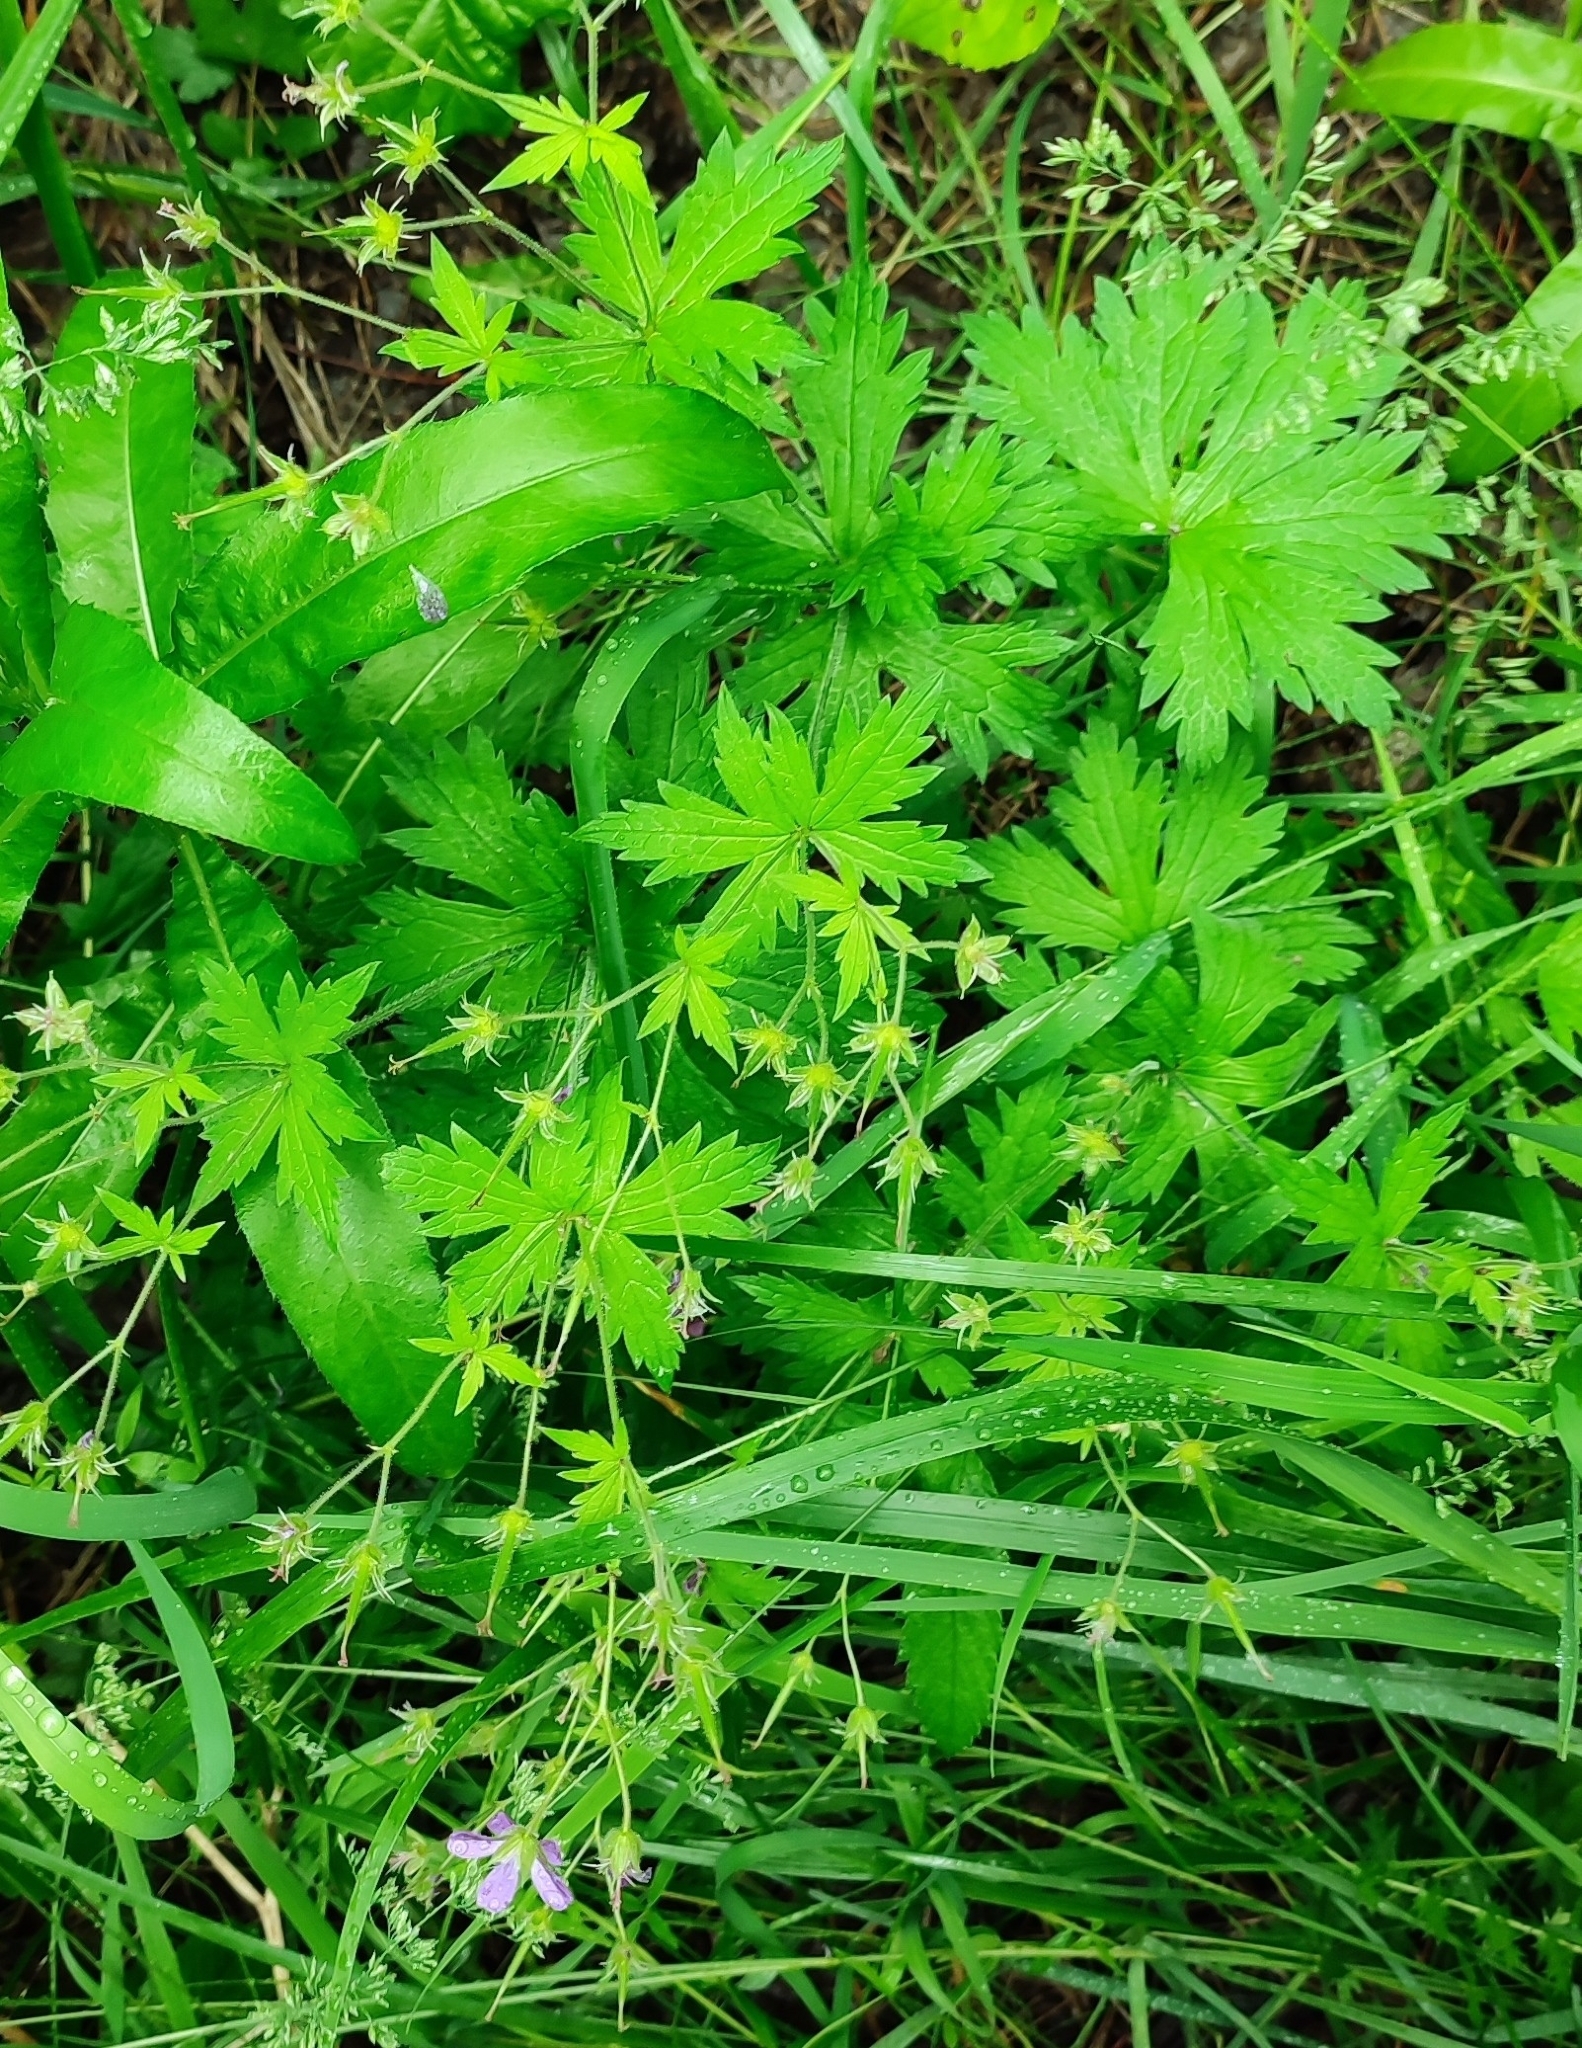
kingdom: Plantae
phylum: Tracheophyta
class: Magnoliopsida
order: Geraniales
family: Geraniaceae
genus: Geranium
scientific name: Geranium sylvaticum
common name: Wood crane's-bill
